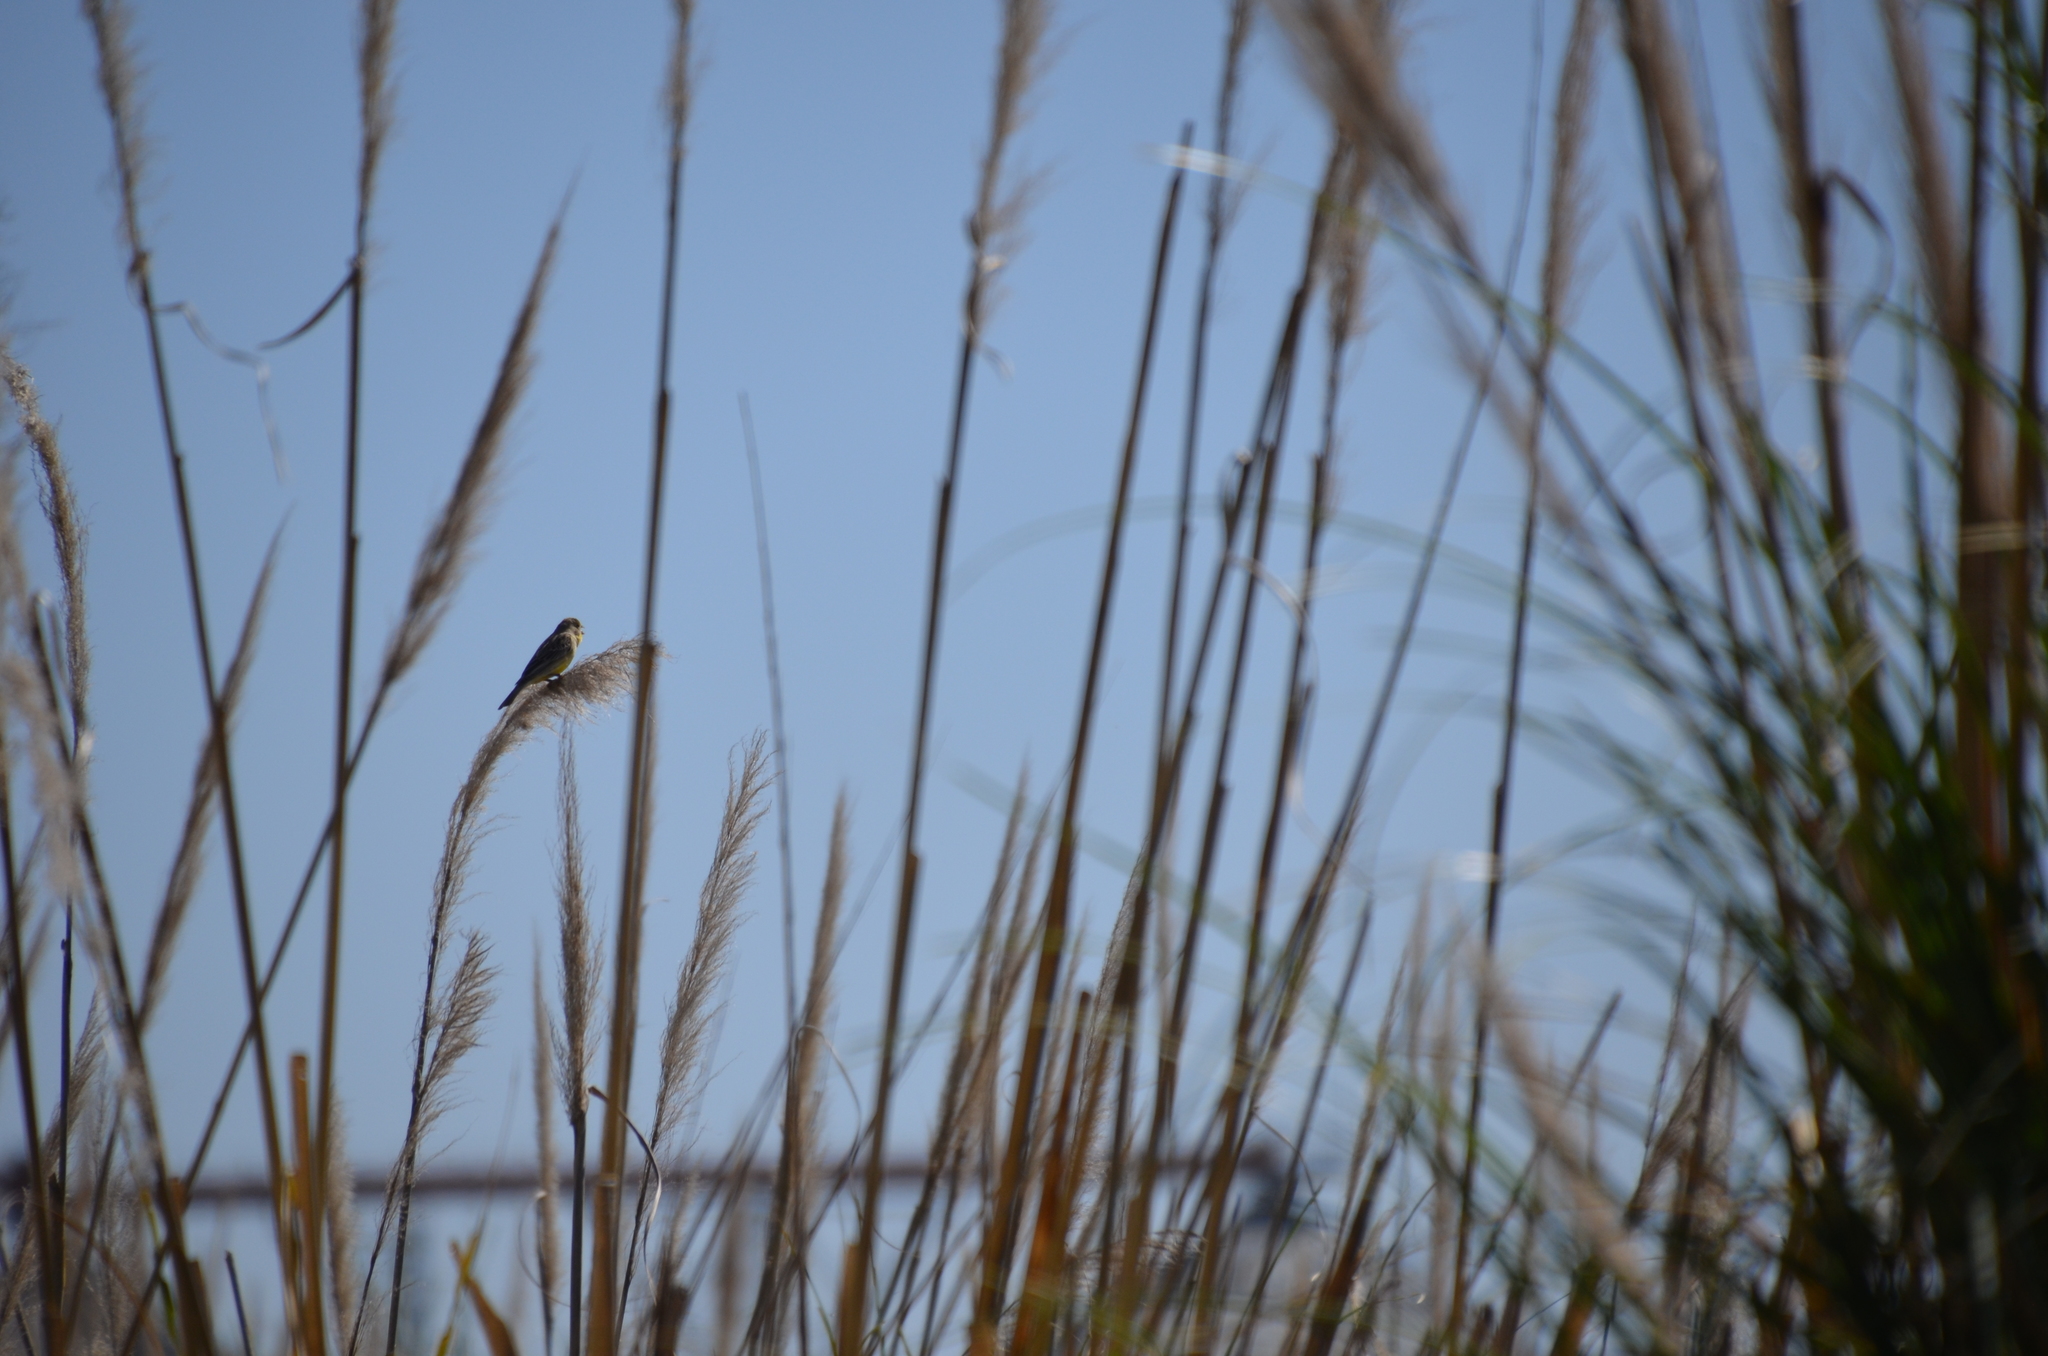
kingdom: Animalia
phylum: Chordata
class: Aves
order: Passeriformes
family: Thraupidae
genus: Sicalis
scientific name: Sicalis luteola
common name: Grassland yellow-finch
